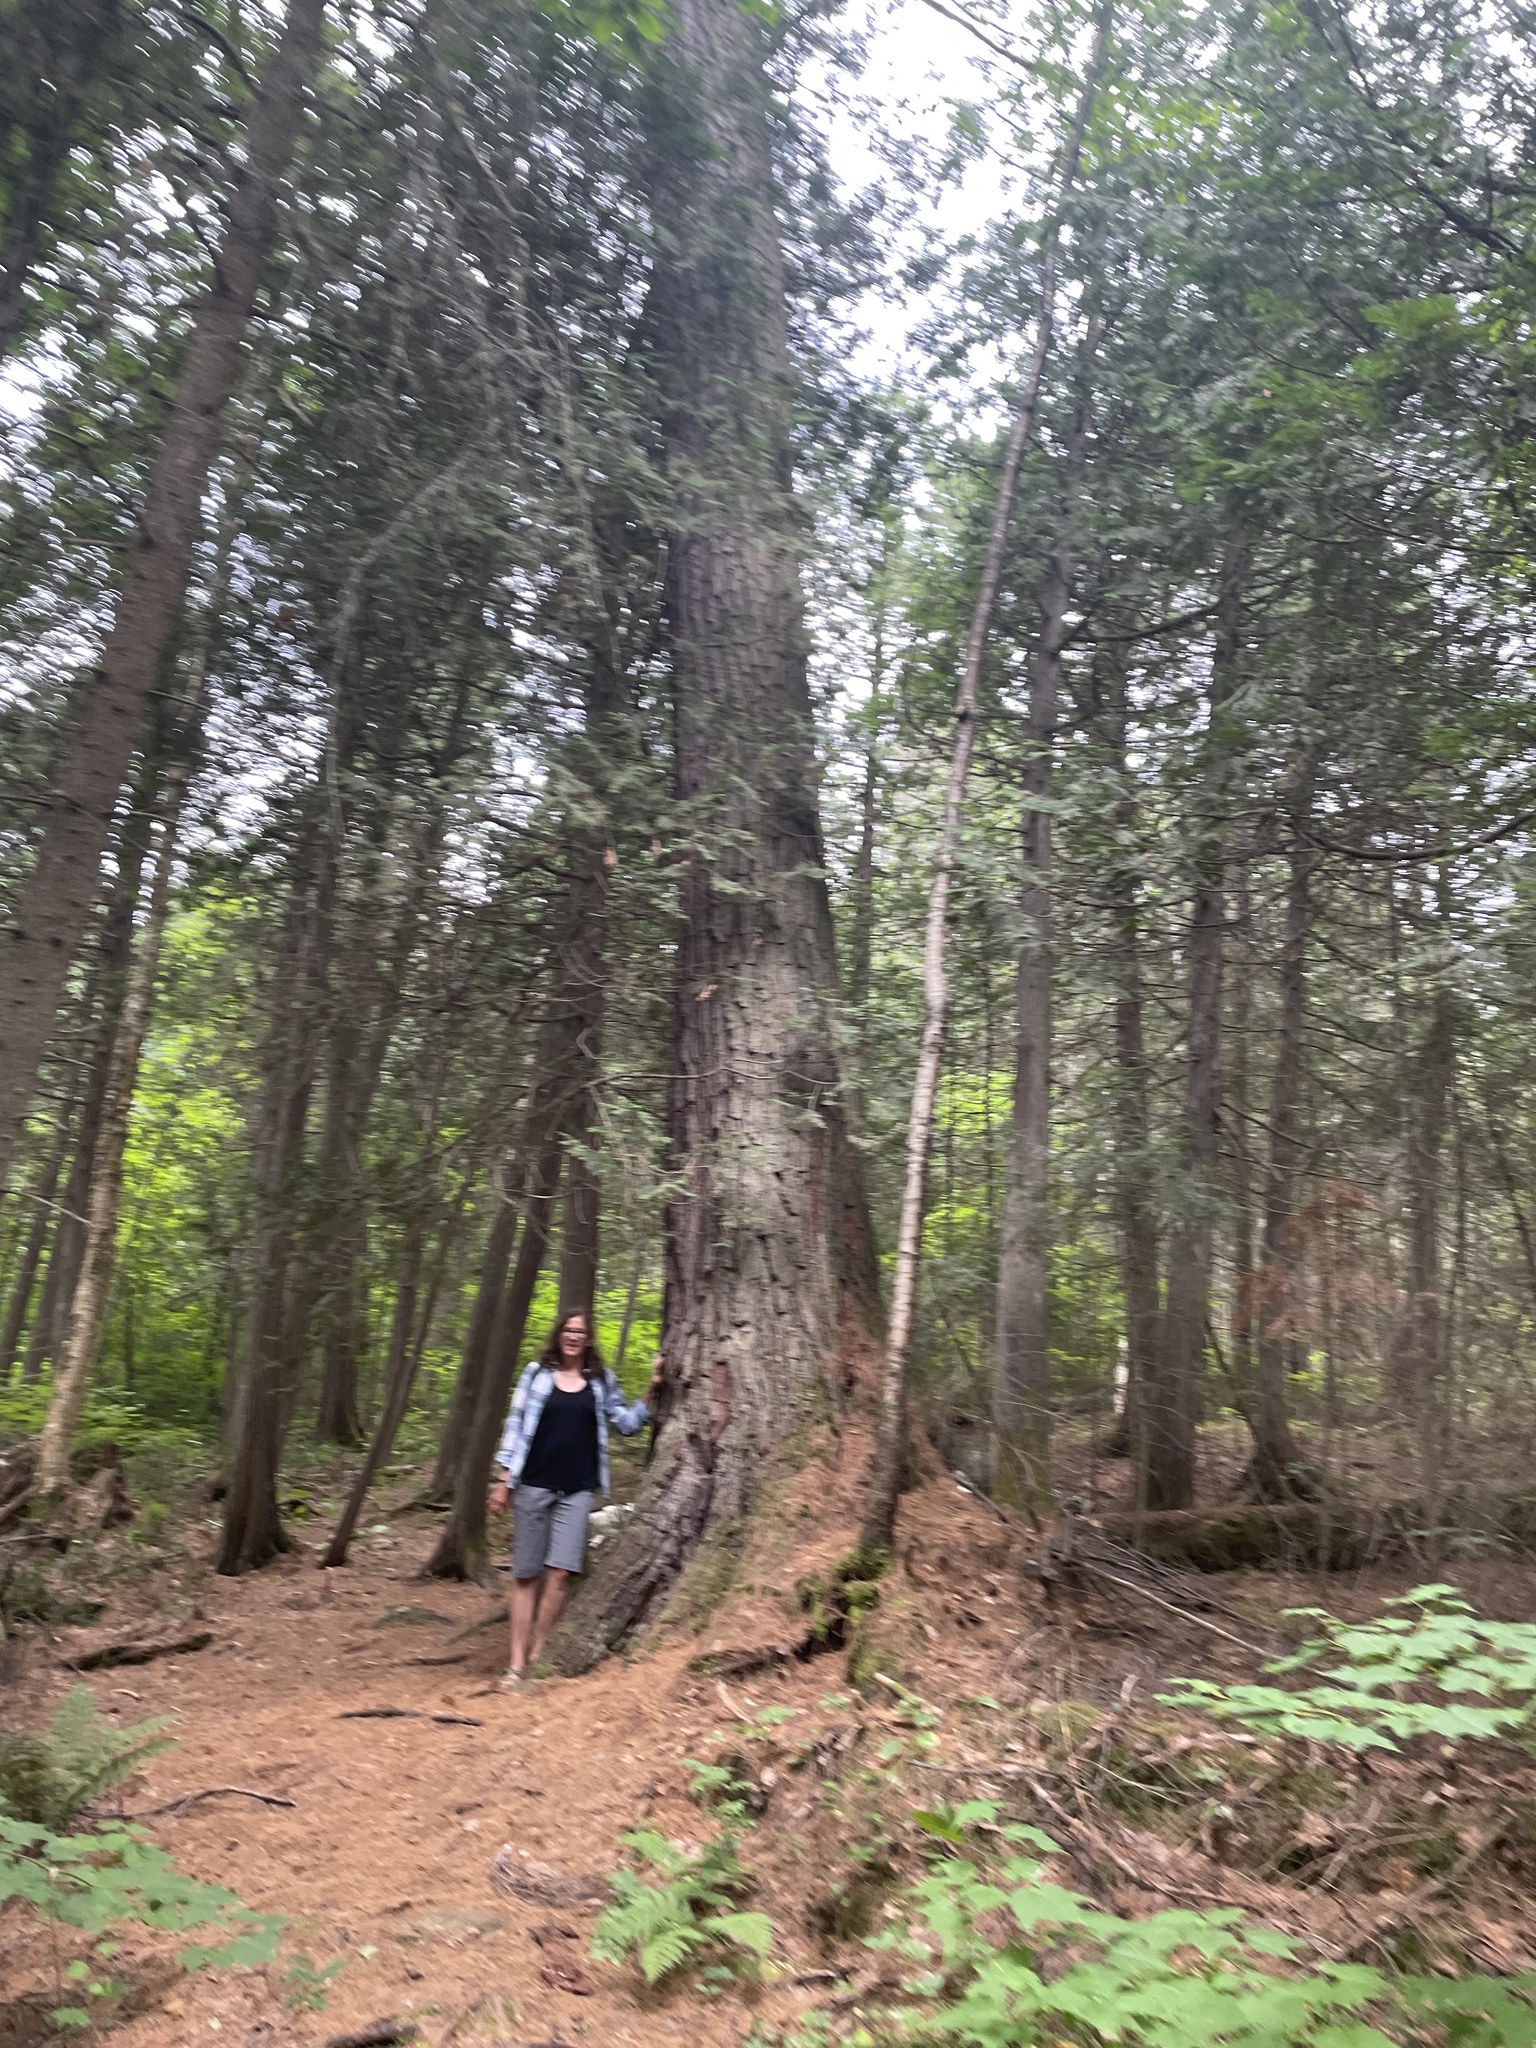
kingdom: Plantae
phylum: Tracheophyta
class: Pinopsida
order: Pinales
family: Pinaceae
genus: Pinus
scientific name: Pinus strobus
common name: Weymouth pine
